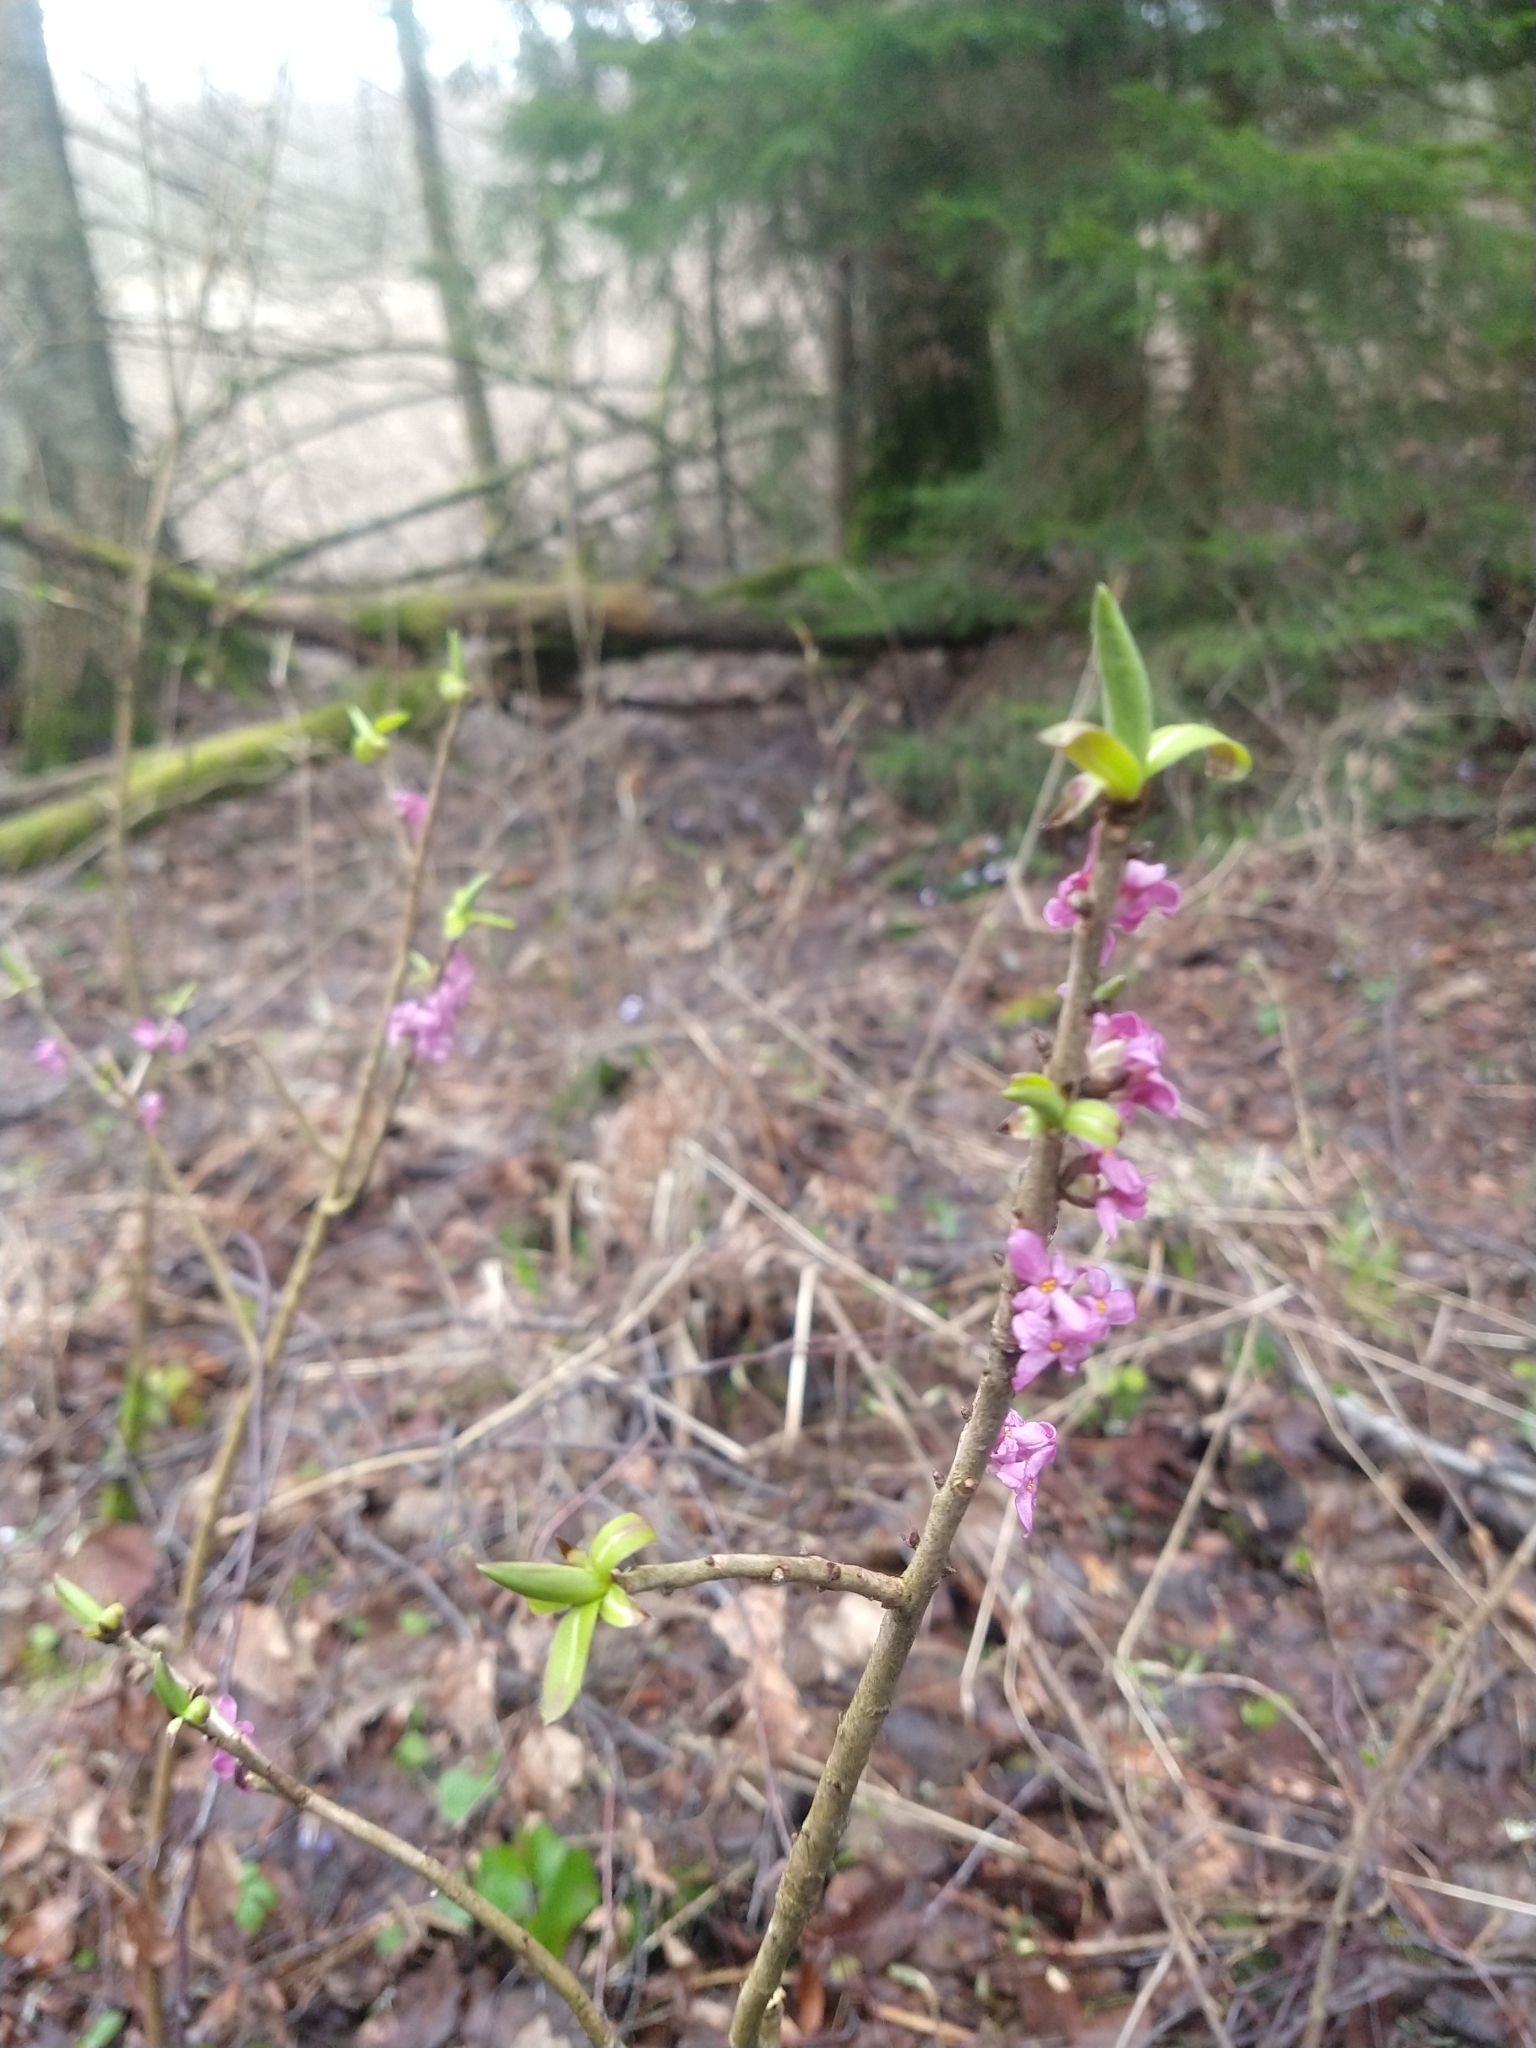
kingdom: Plantae
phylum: Tracheophyta
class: Magnoliopsida
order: Malvales
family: Thymelaeaceae
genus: Daphne
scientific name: Daphne mezereum
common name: Mezereon
